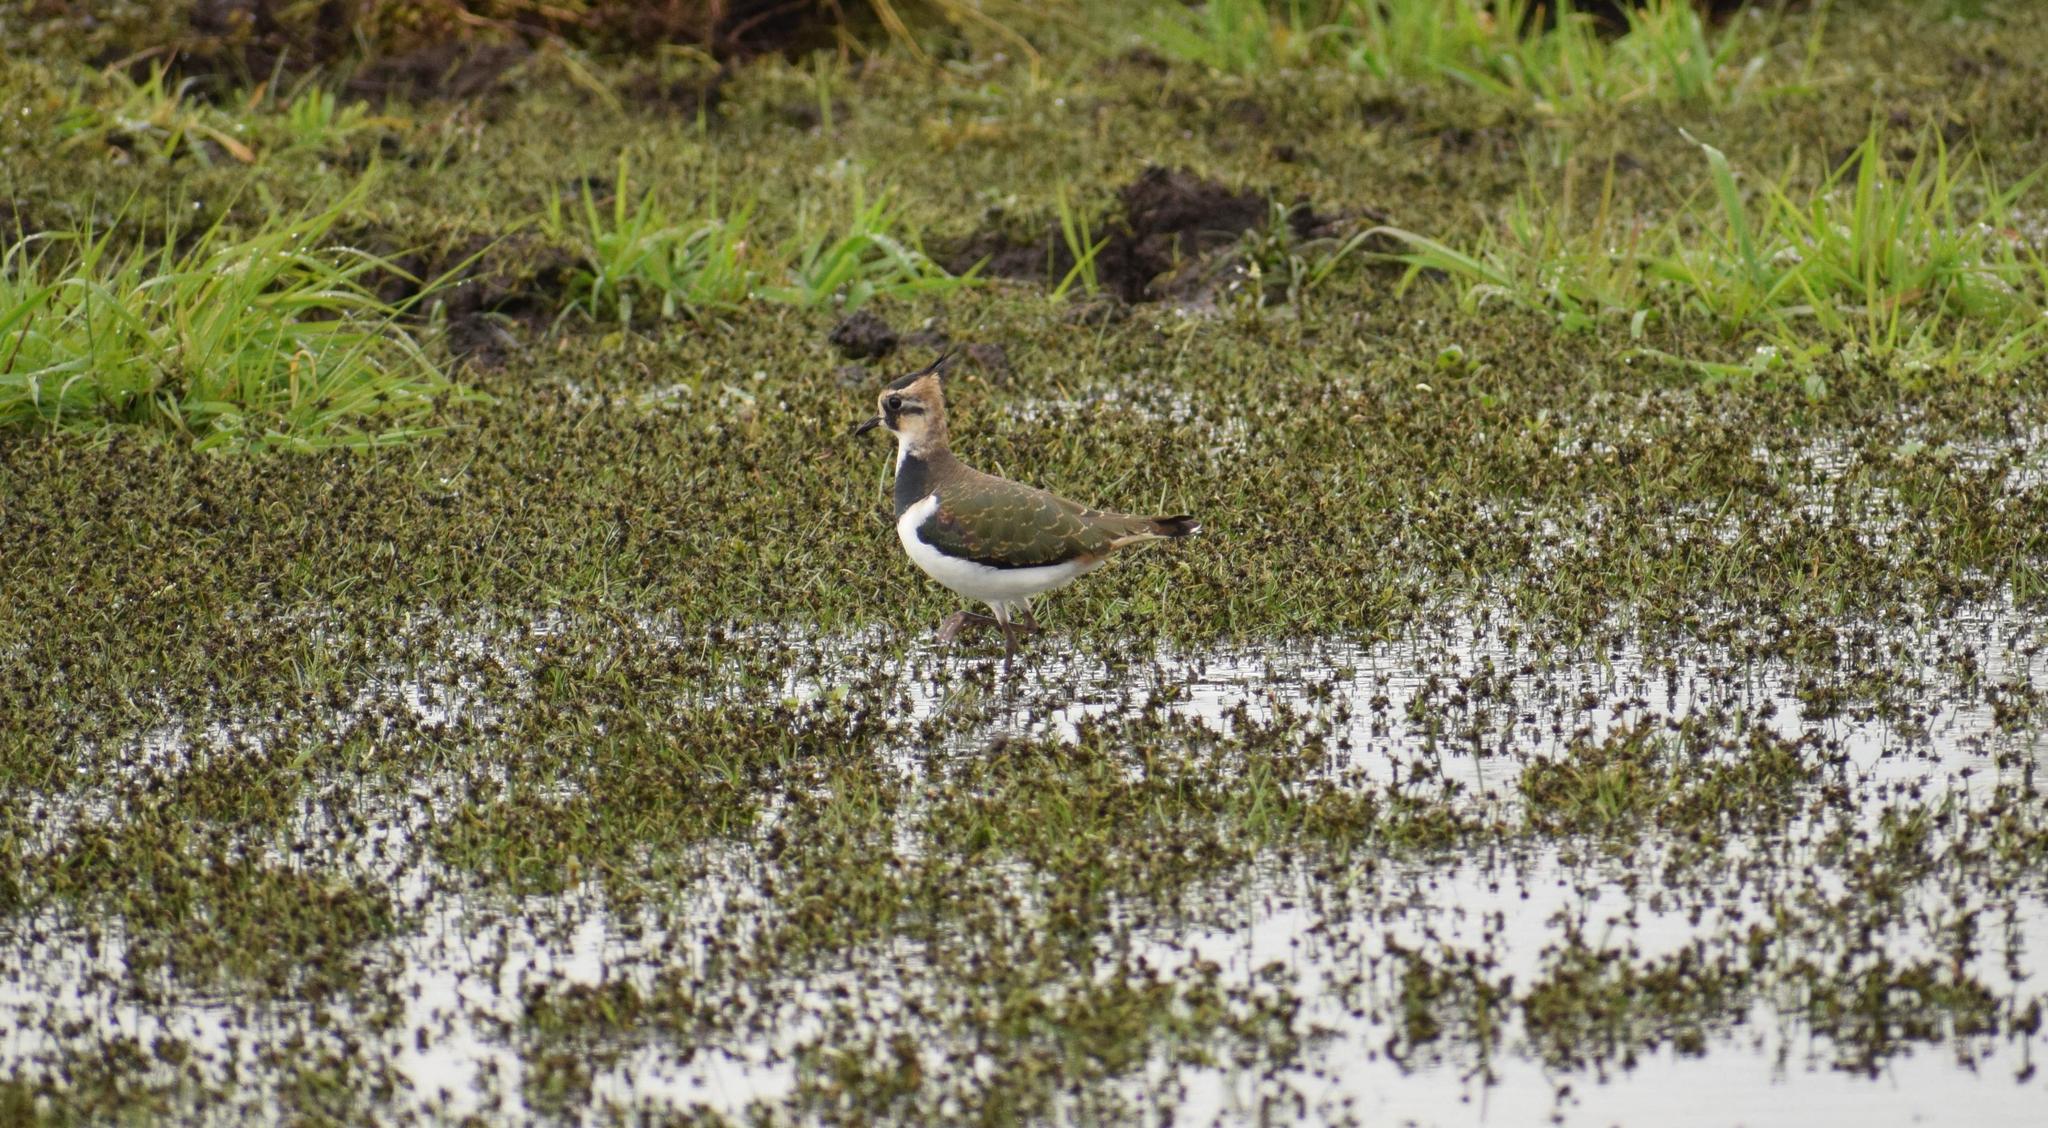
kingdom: Animalia
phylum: Chordata
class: Aves
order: Charadriiformes
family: Charadriidae
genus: Vanellus
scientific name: Vanellus vanellus
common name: Northern lapwing
